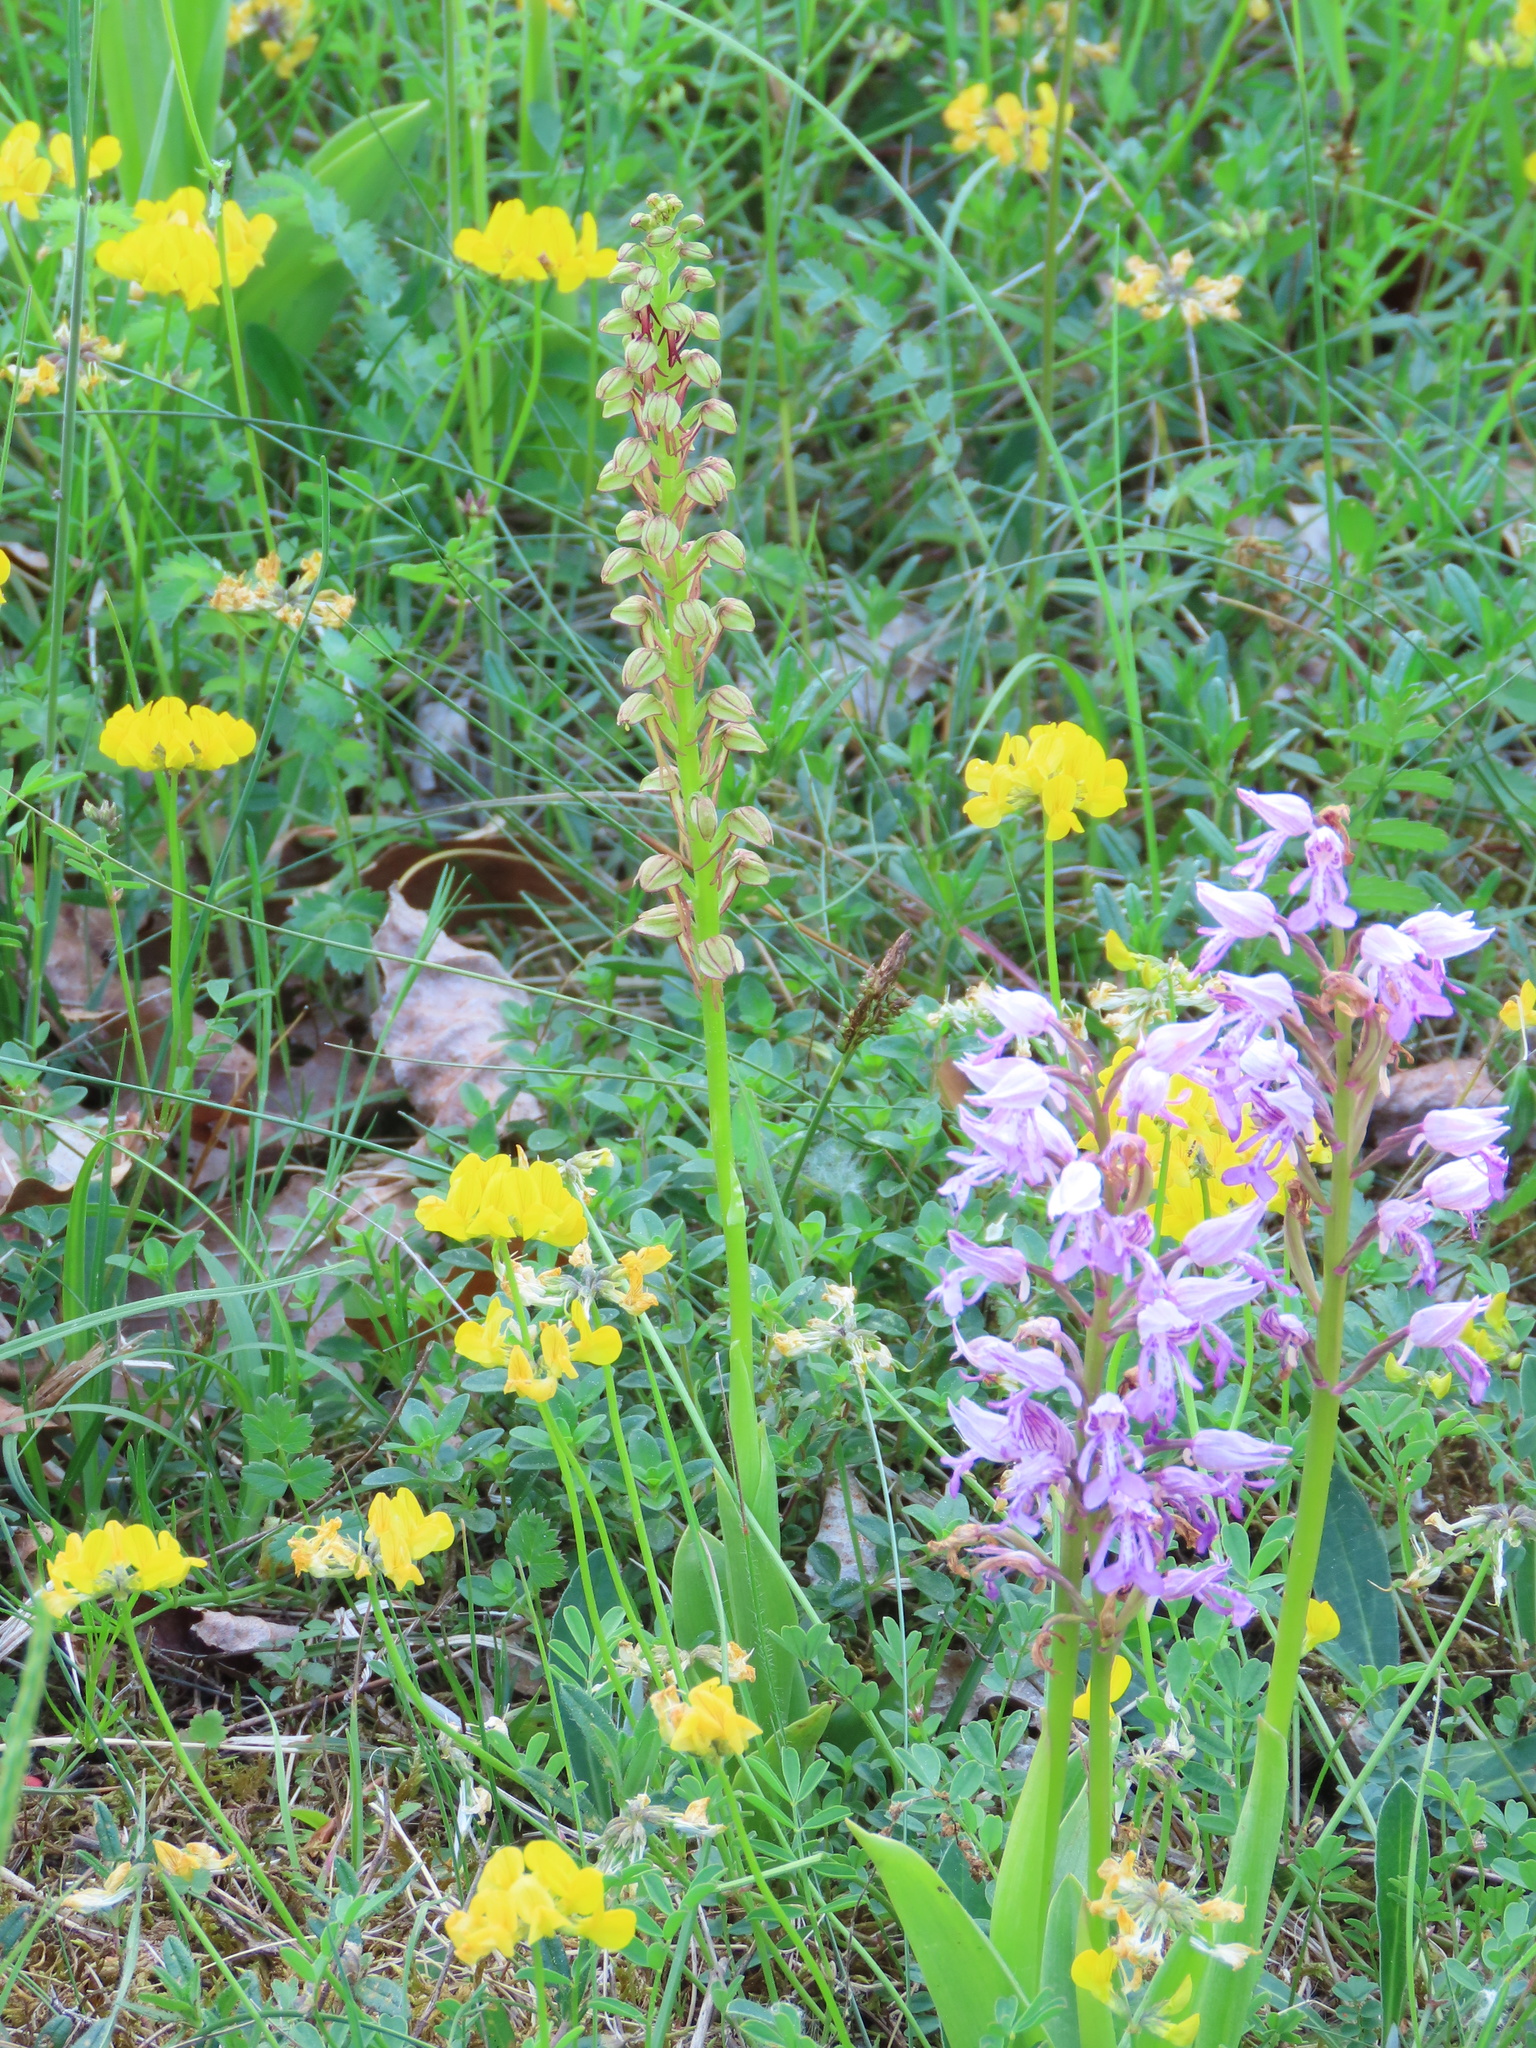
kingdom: Plantae
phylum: Tracheophyta
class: Liliopsida
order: Asparagales
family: Orchidaceae
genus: Orchis
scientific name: Orchis anthropophora
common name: Man orchid
